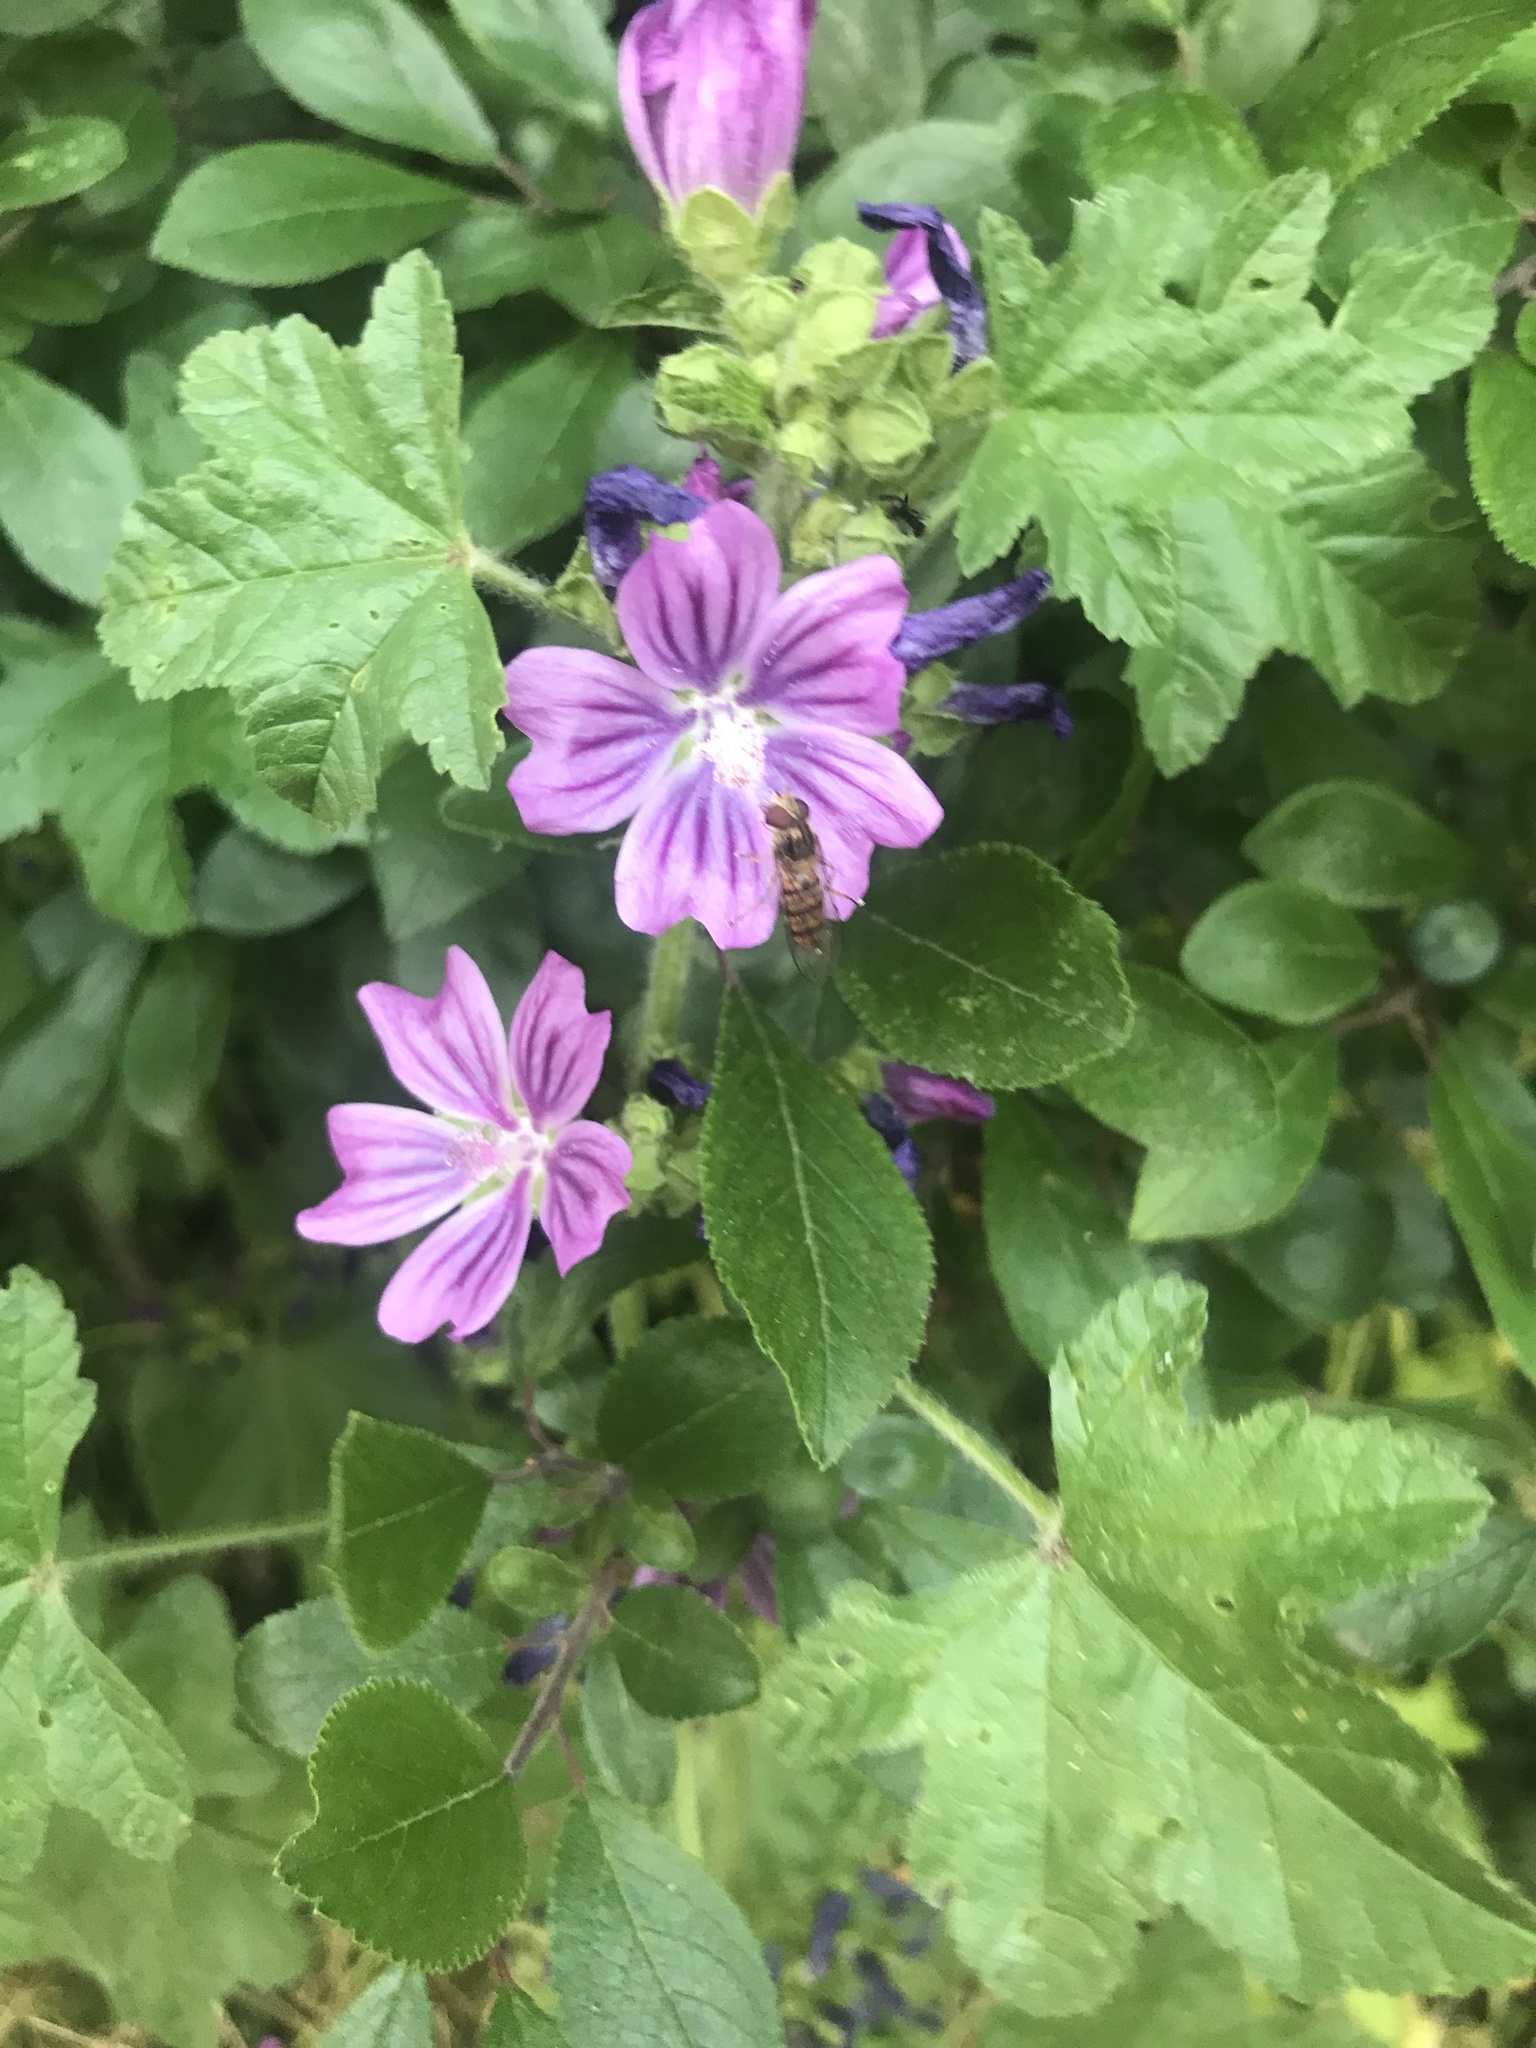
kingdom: Plantae
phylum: Tracheophyta
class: Magnoliopsida
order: Malvales
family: Malvaceae
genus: Malva
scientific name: Malva sylvestris
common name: Common mallow
